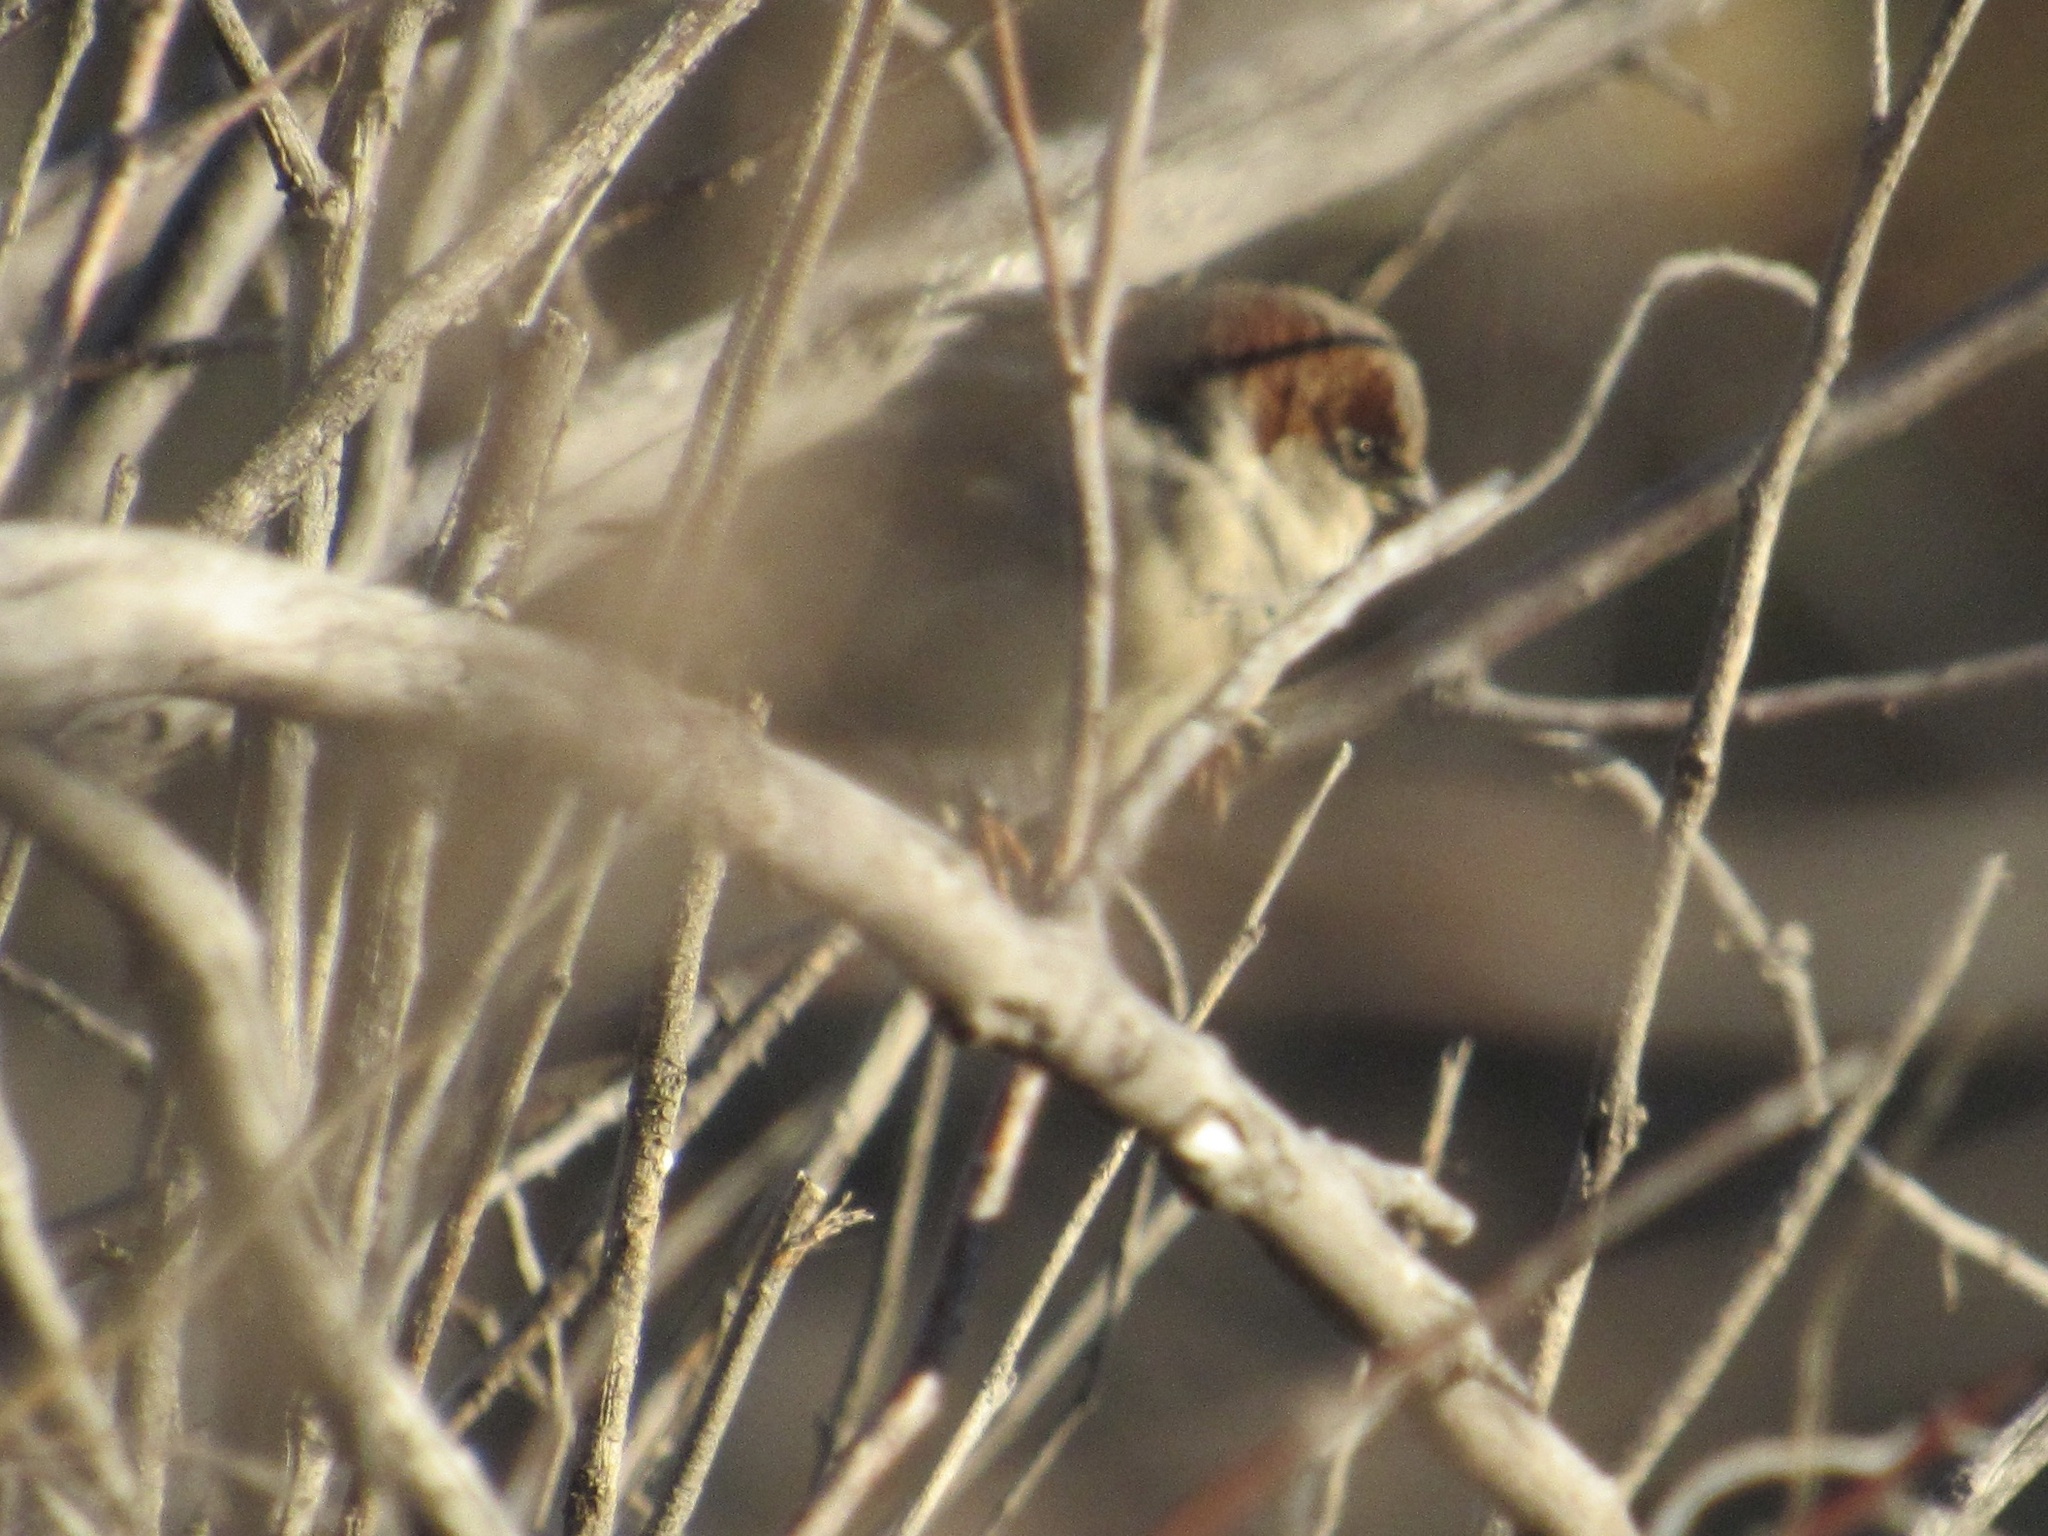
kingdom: Animalia
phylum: Chordata
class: Aves
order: Passeriformes
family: Passeridae
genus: Passer
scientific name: Passer domesticus
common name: House sparrow
